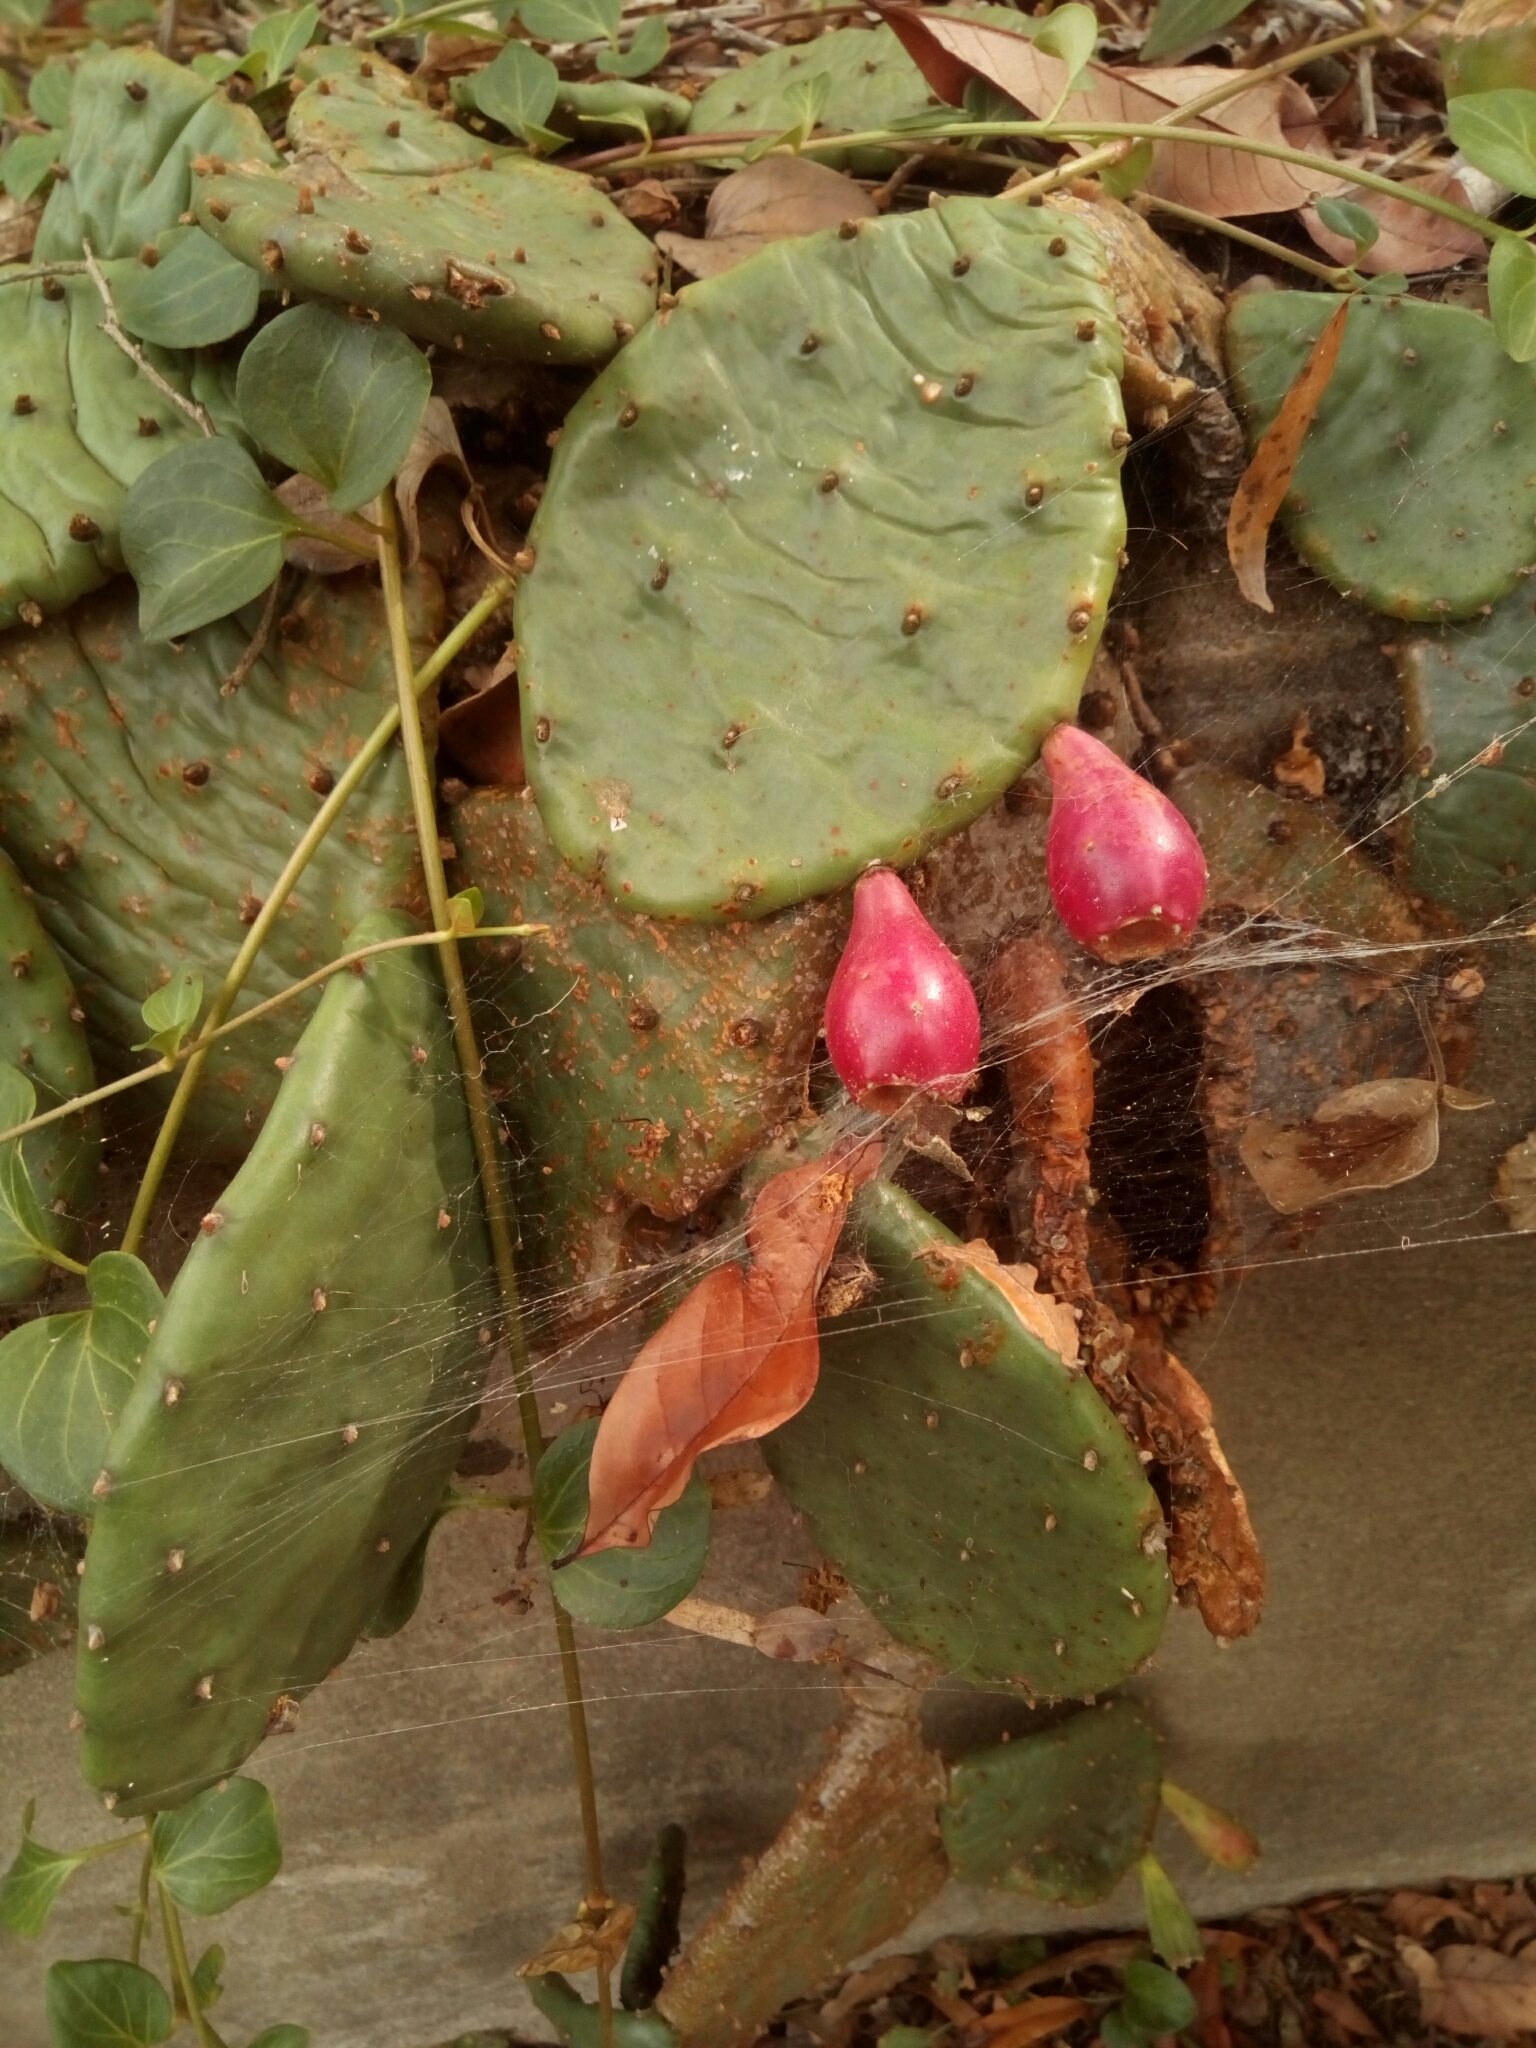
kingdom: Plantae
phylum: Tracheophyta
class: Magnoliopsida
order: Caryophyllales
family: Cactaceae
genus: Opuntia
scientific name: Opuntia humifusa
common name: Eastern prickly-pear
